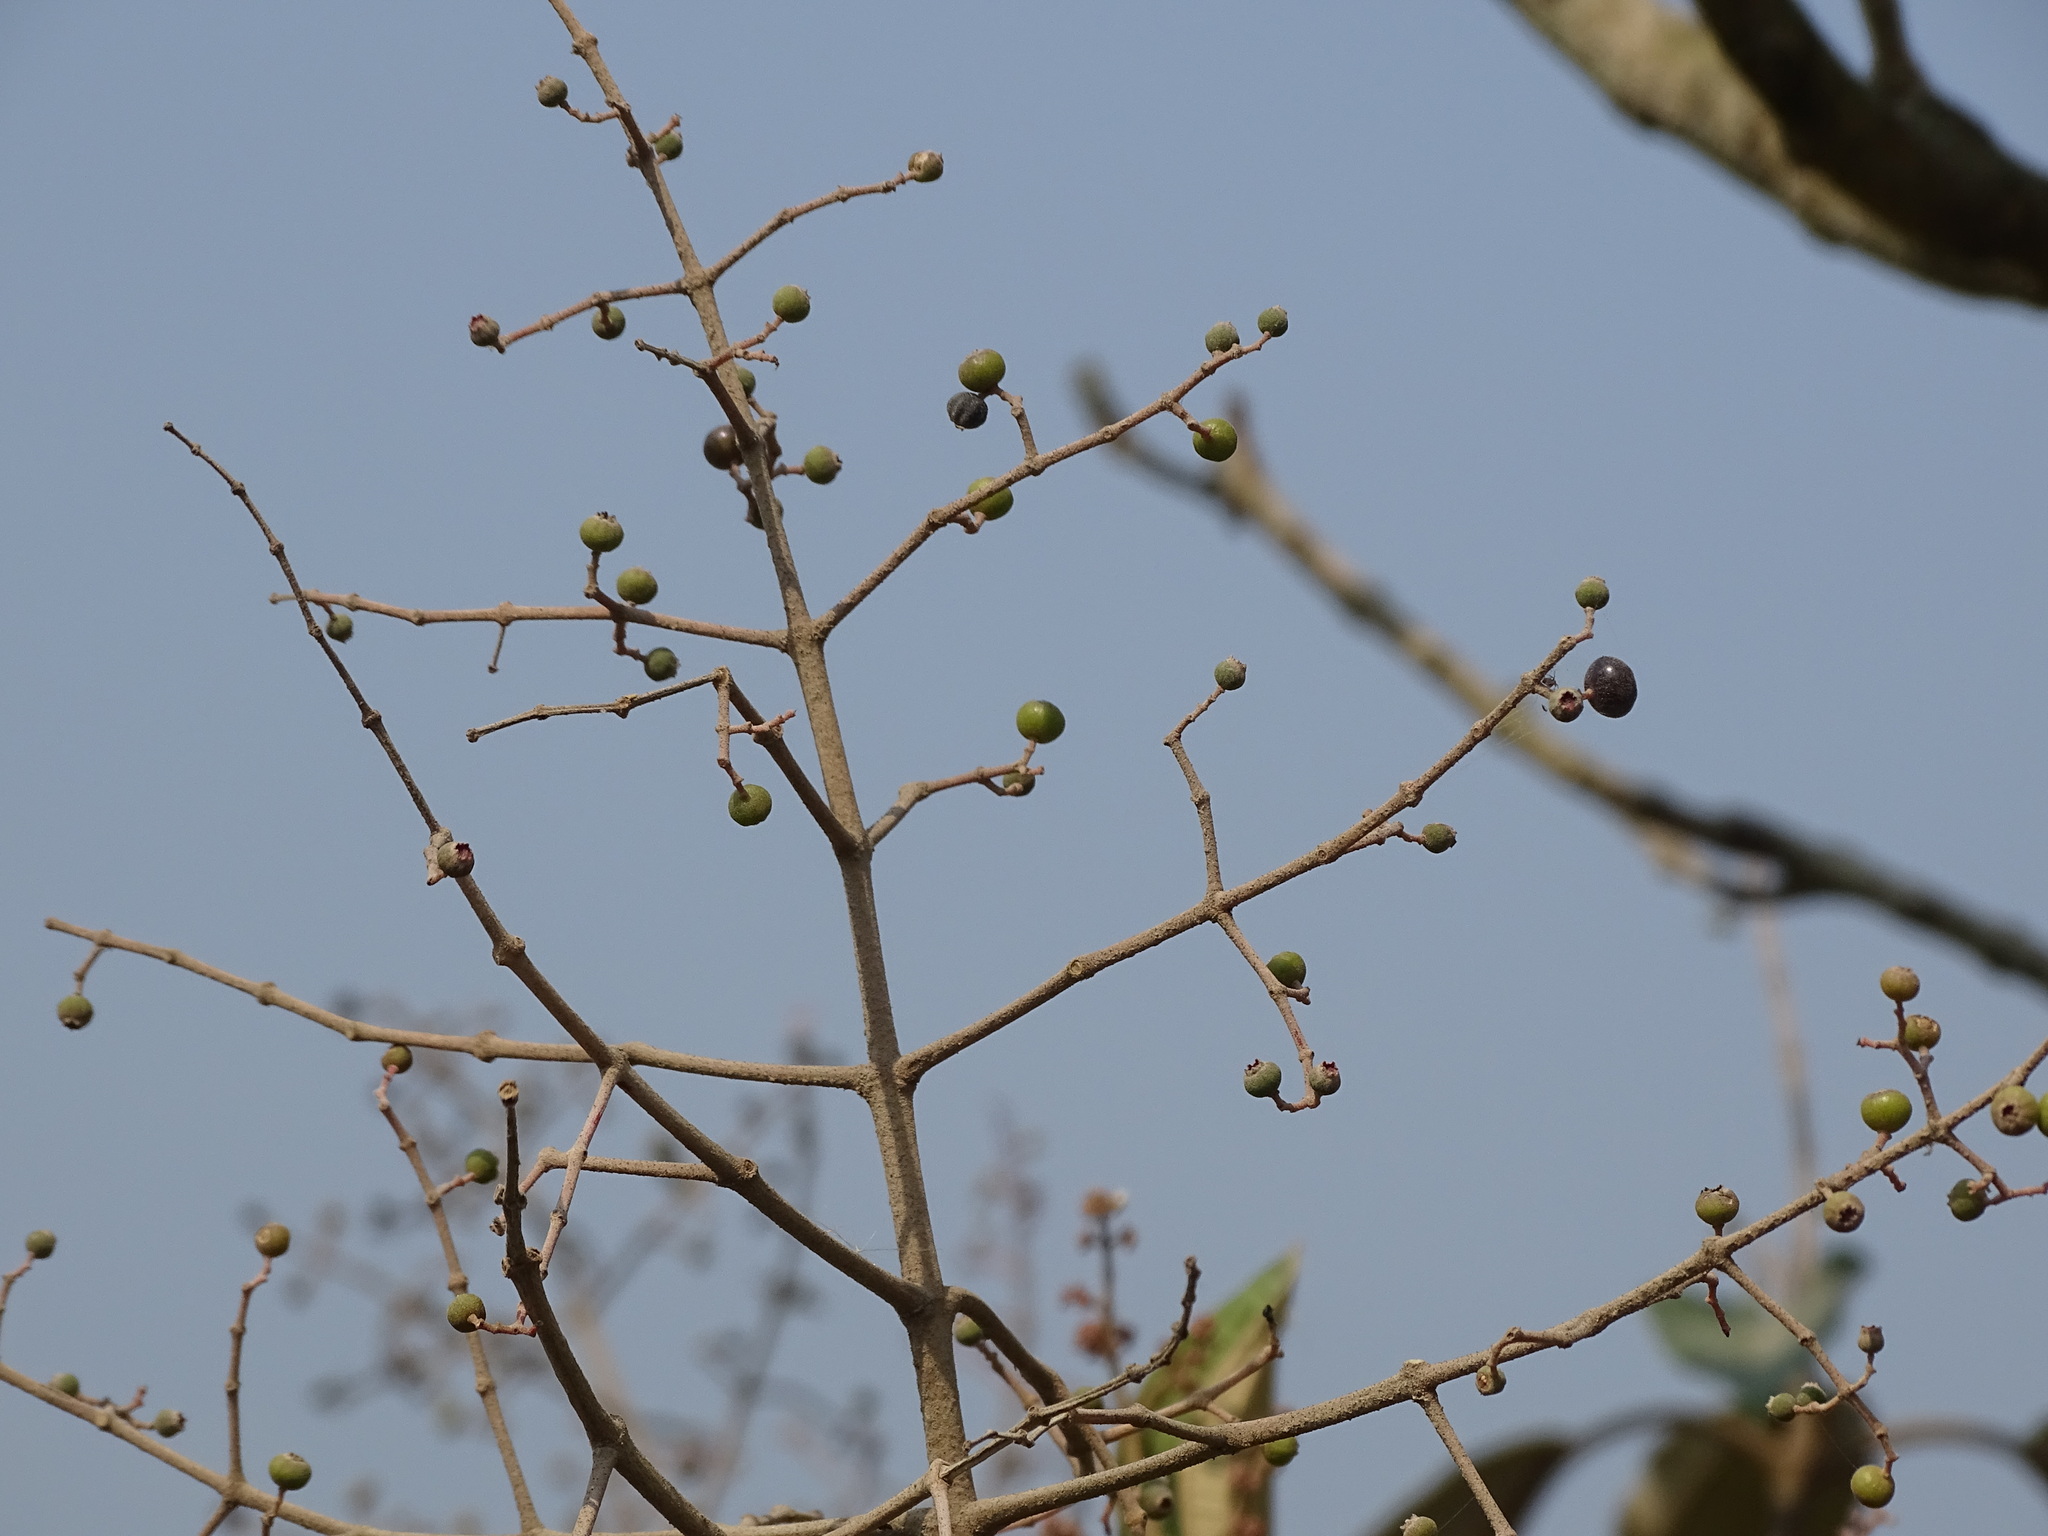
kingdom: Plantae
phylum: Tracheophyta
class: Magnoliopsida
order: Myrtales
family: Melastomataceae
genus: Miconia
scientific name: Miconia argentea
